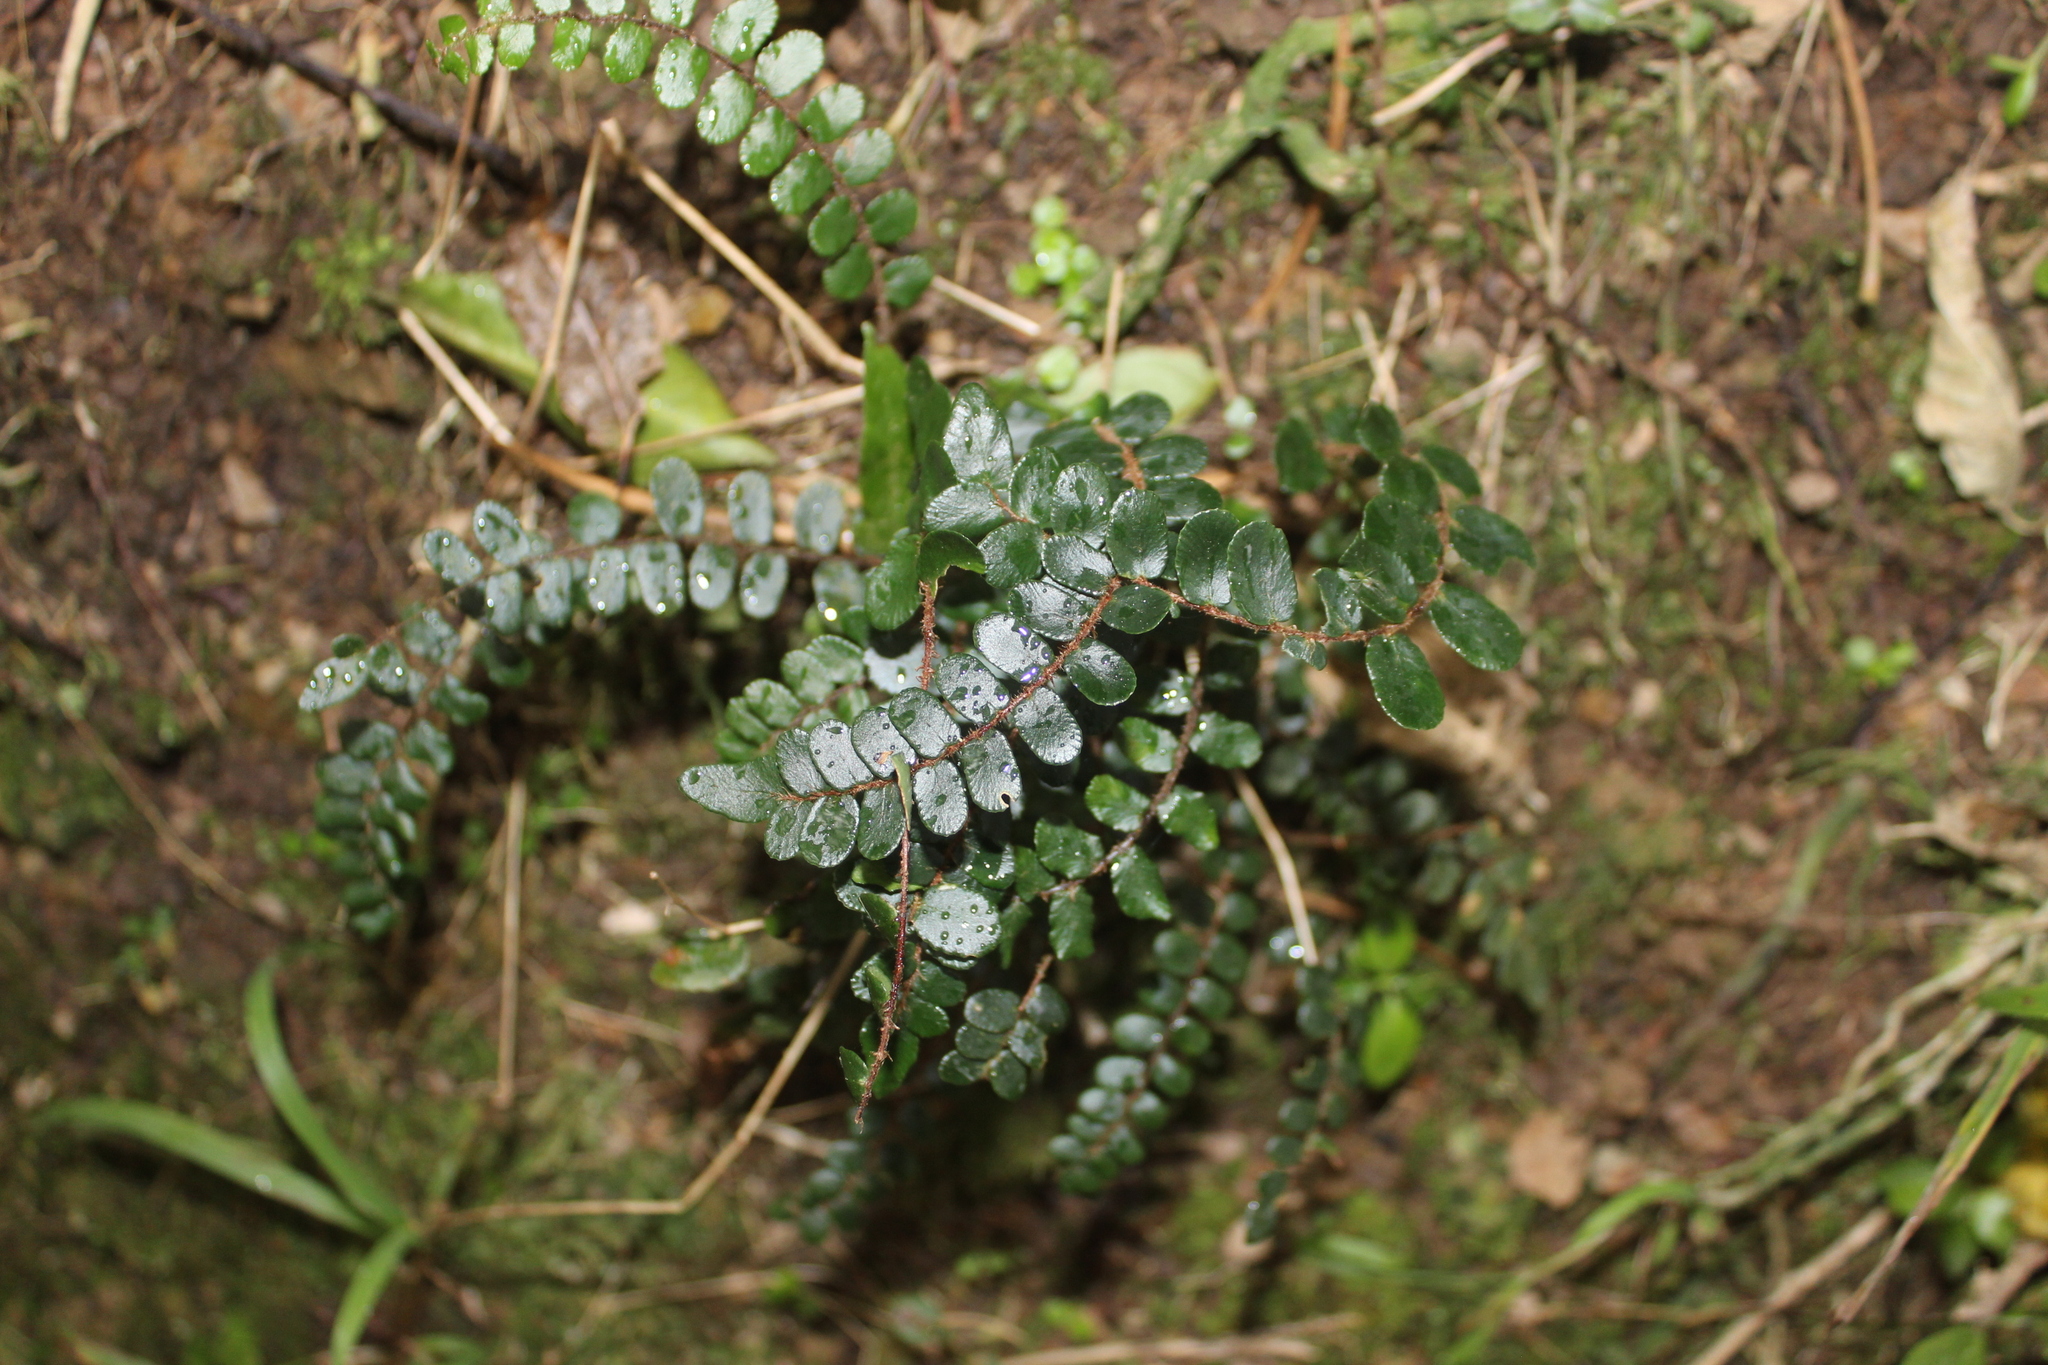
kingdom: Plantae
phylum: Tracheophyta
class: Polypodiopsida
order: Polypodiales
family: Pteridaceae
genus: Pellaea
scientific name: Pellaea rotundifolia
